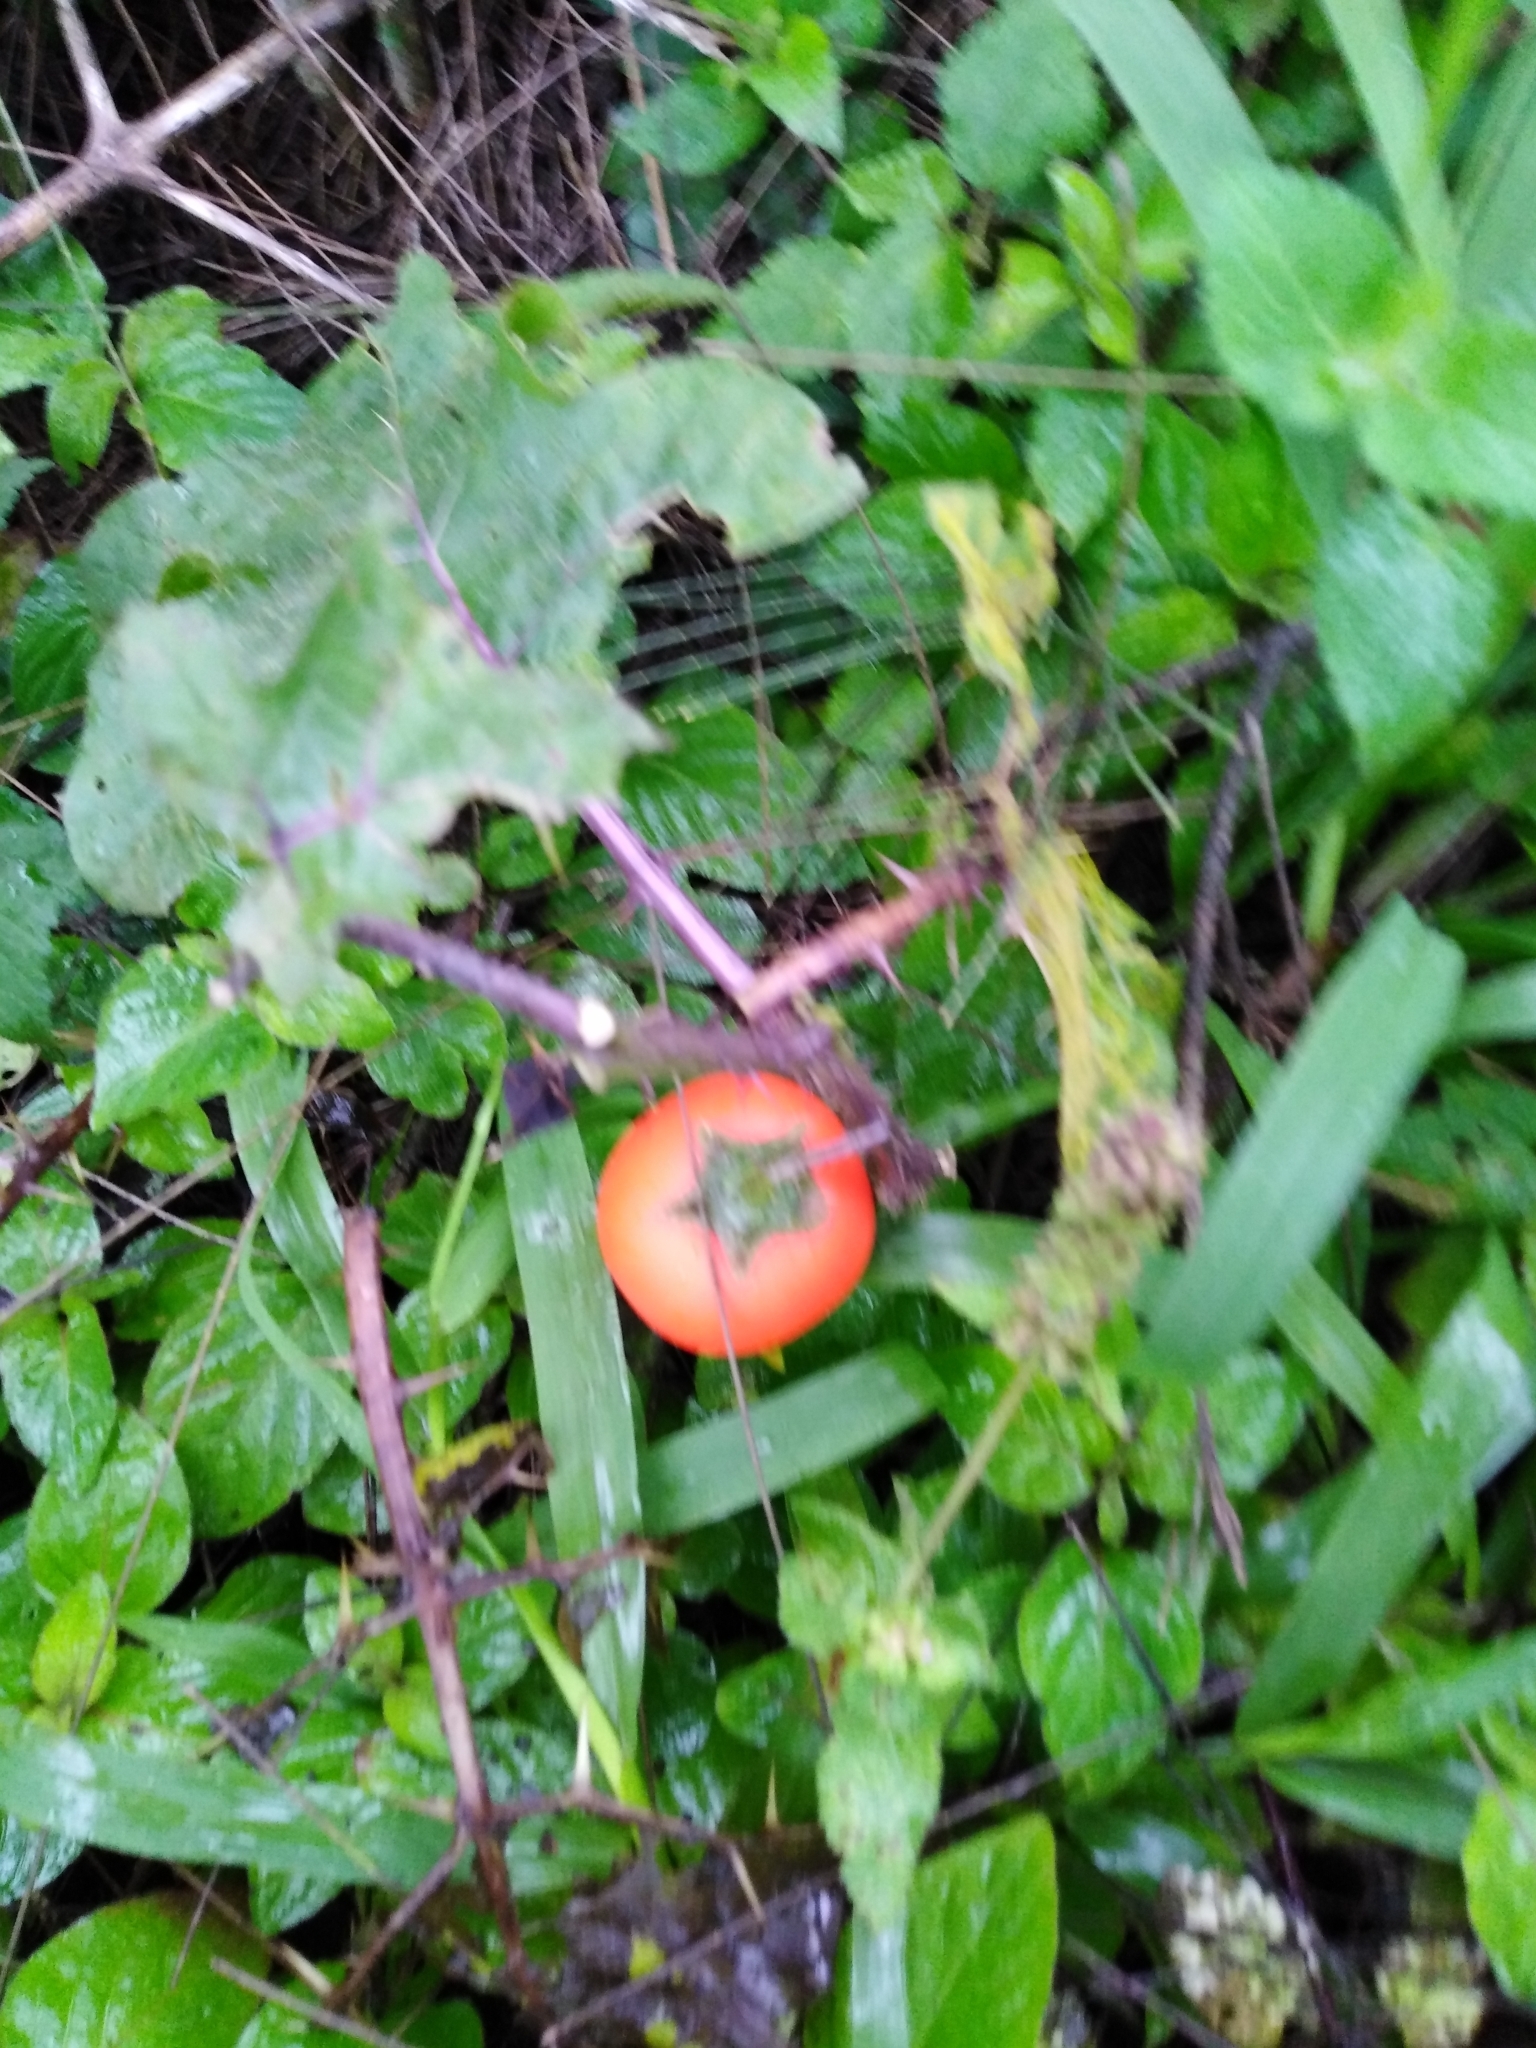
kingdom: Plantae
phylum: Tracheophyta
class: Magnoliopsida
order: Solanales
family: Solanaceae
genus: Solanum
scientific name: Solanum capsicoides
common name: Cockroach berry
